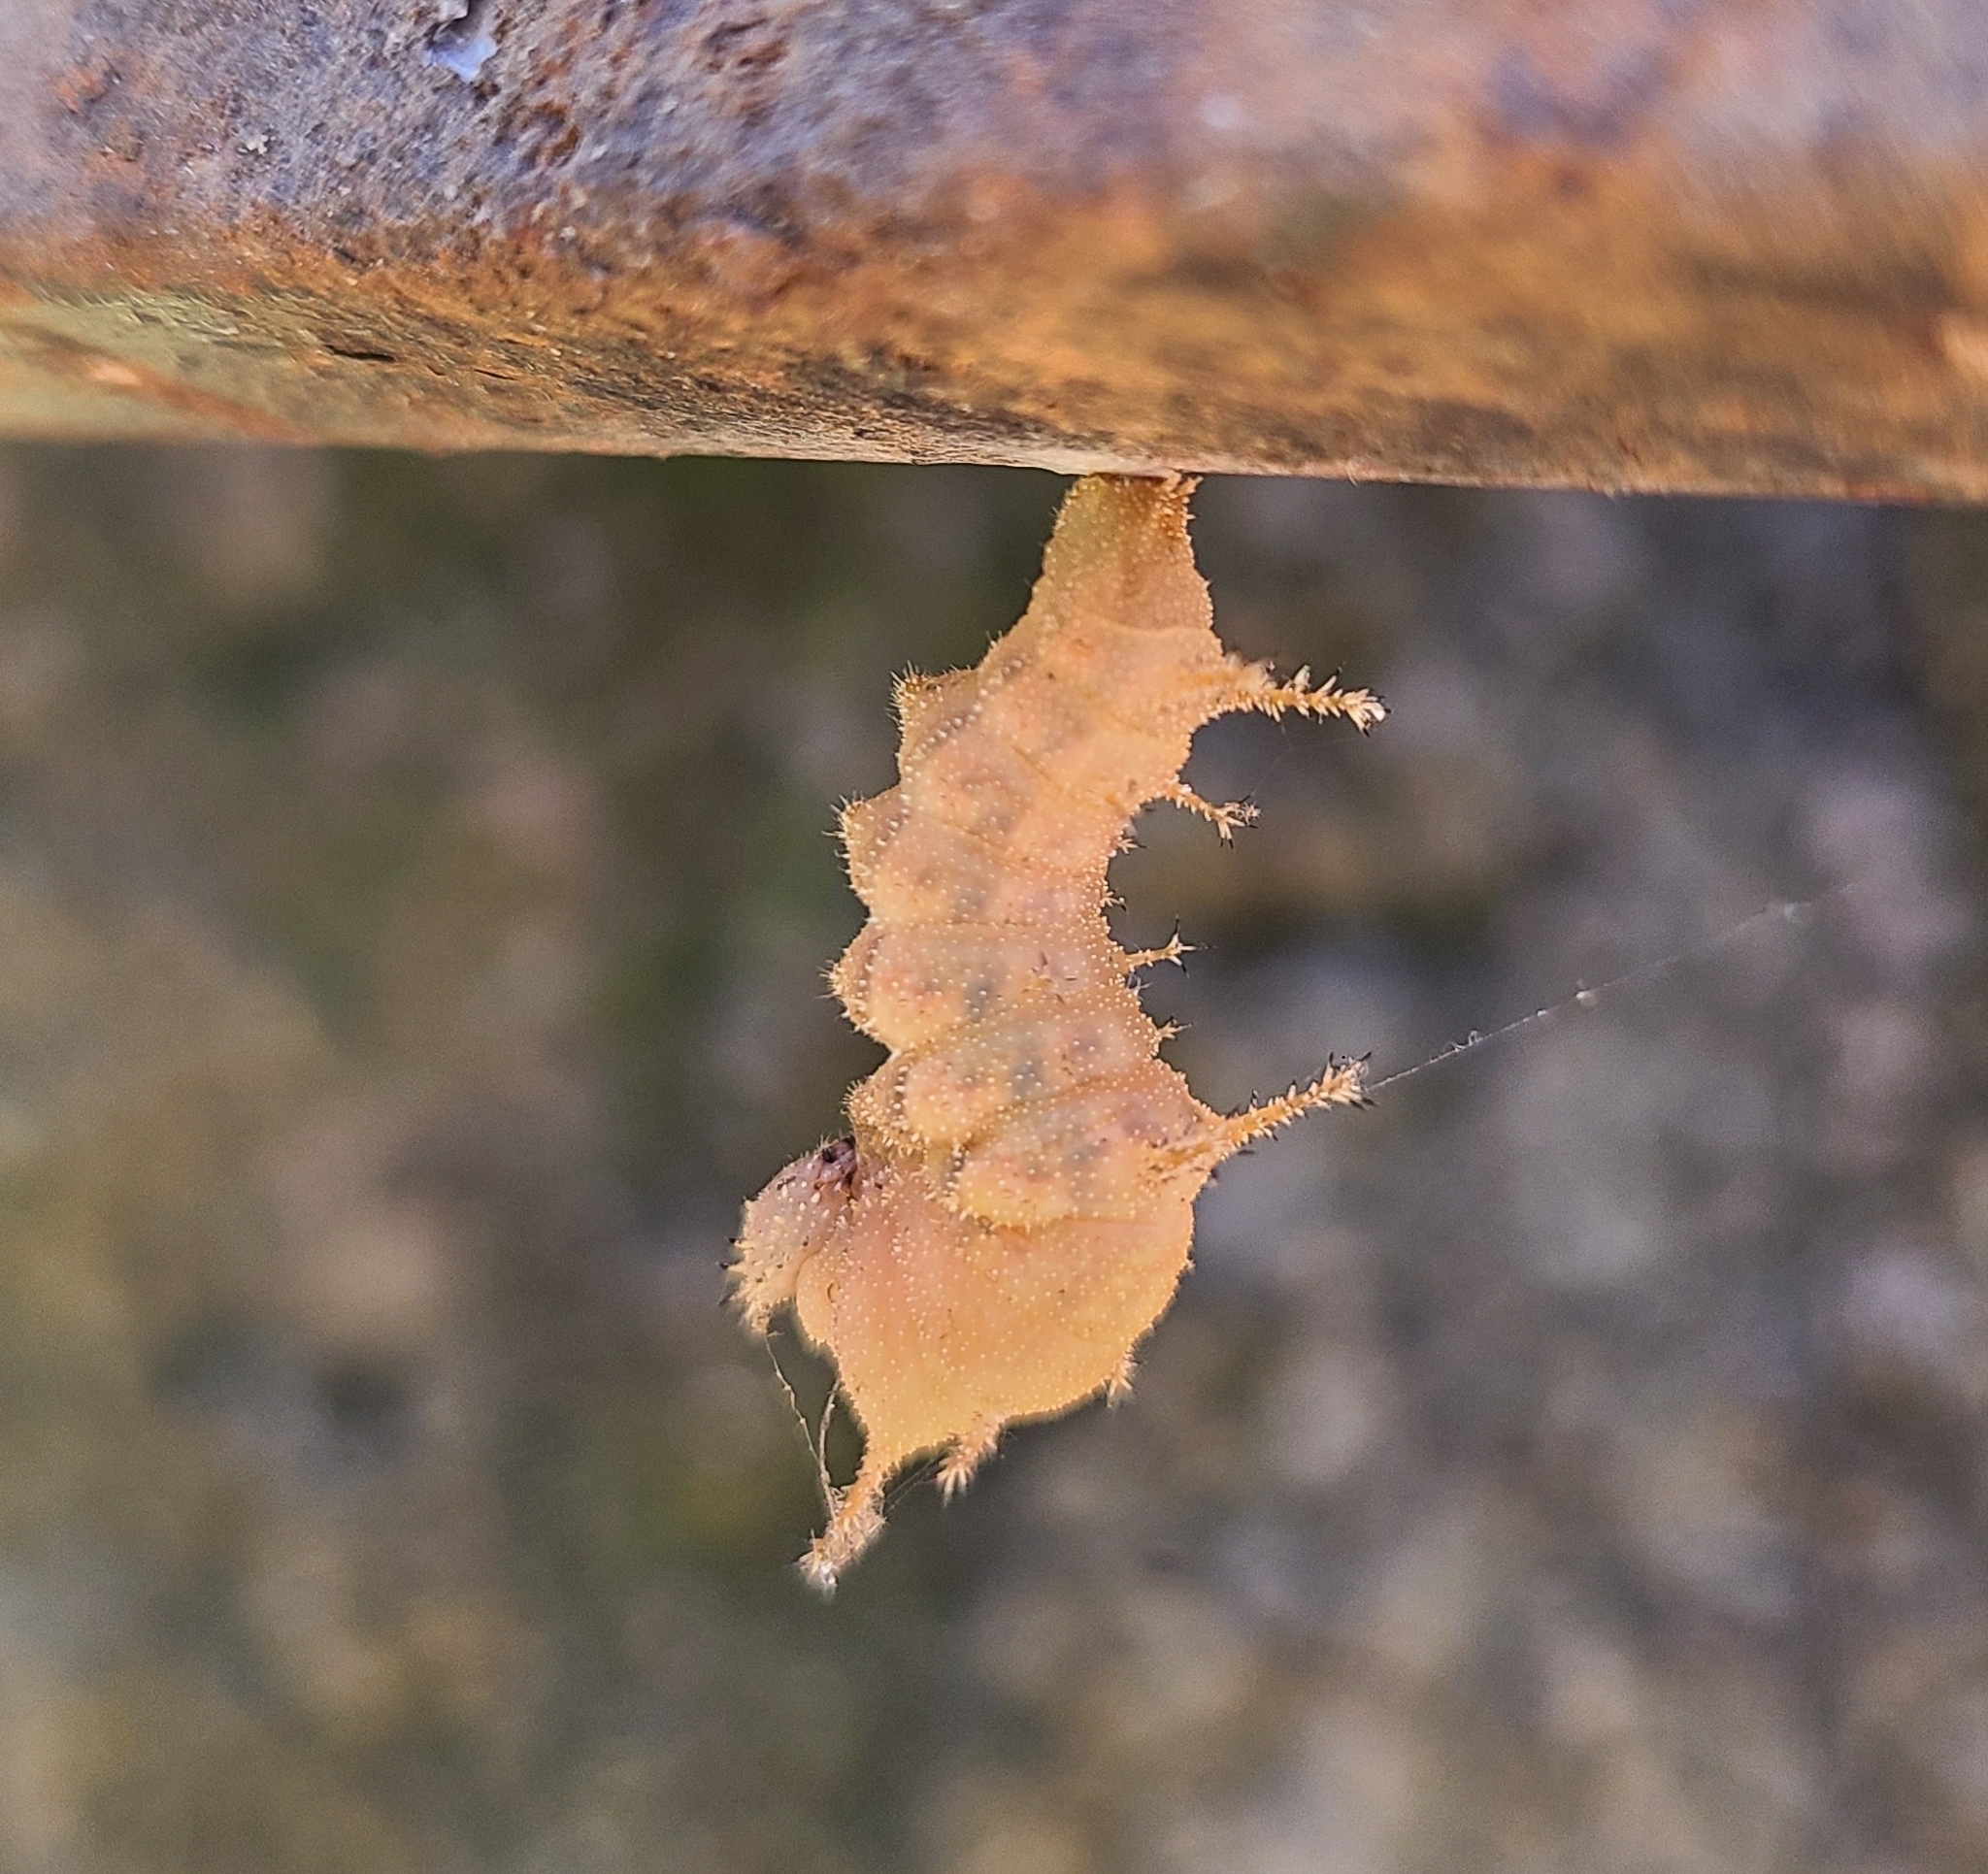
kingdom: Animalia
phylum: Arthropoda
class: Insecta
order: Lepidoptera
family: Nymphalidae
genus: Limenitis
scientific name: Limenitis bredowii
